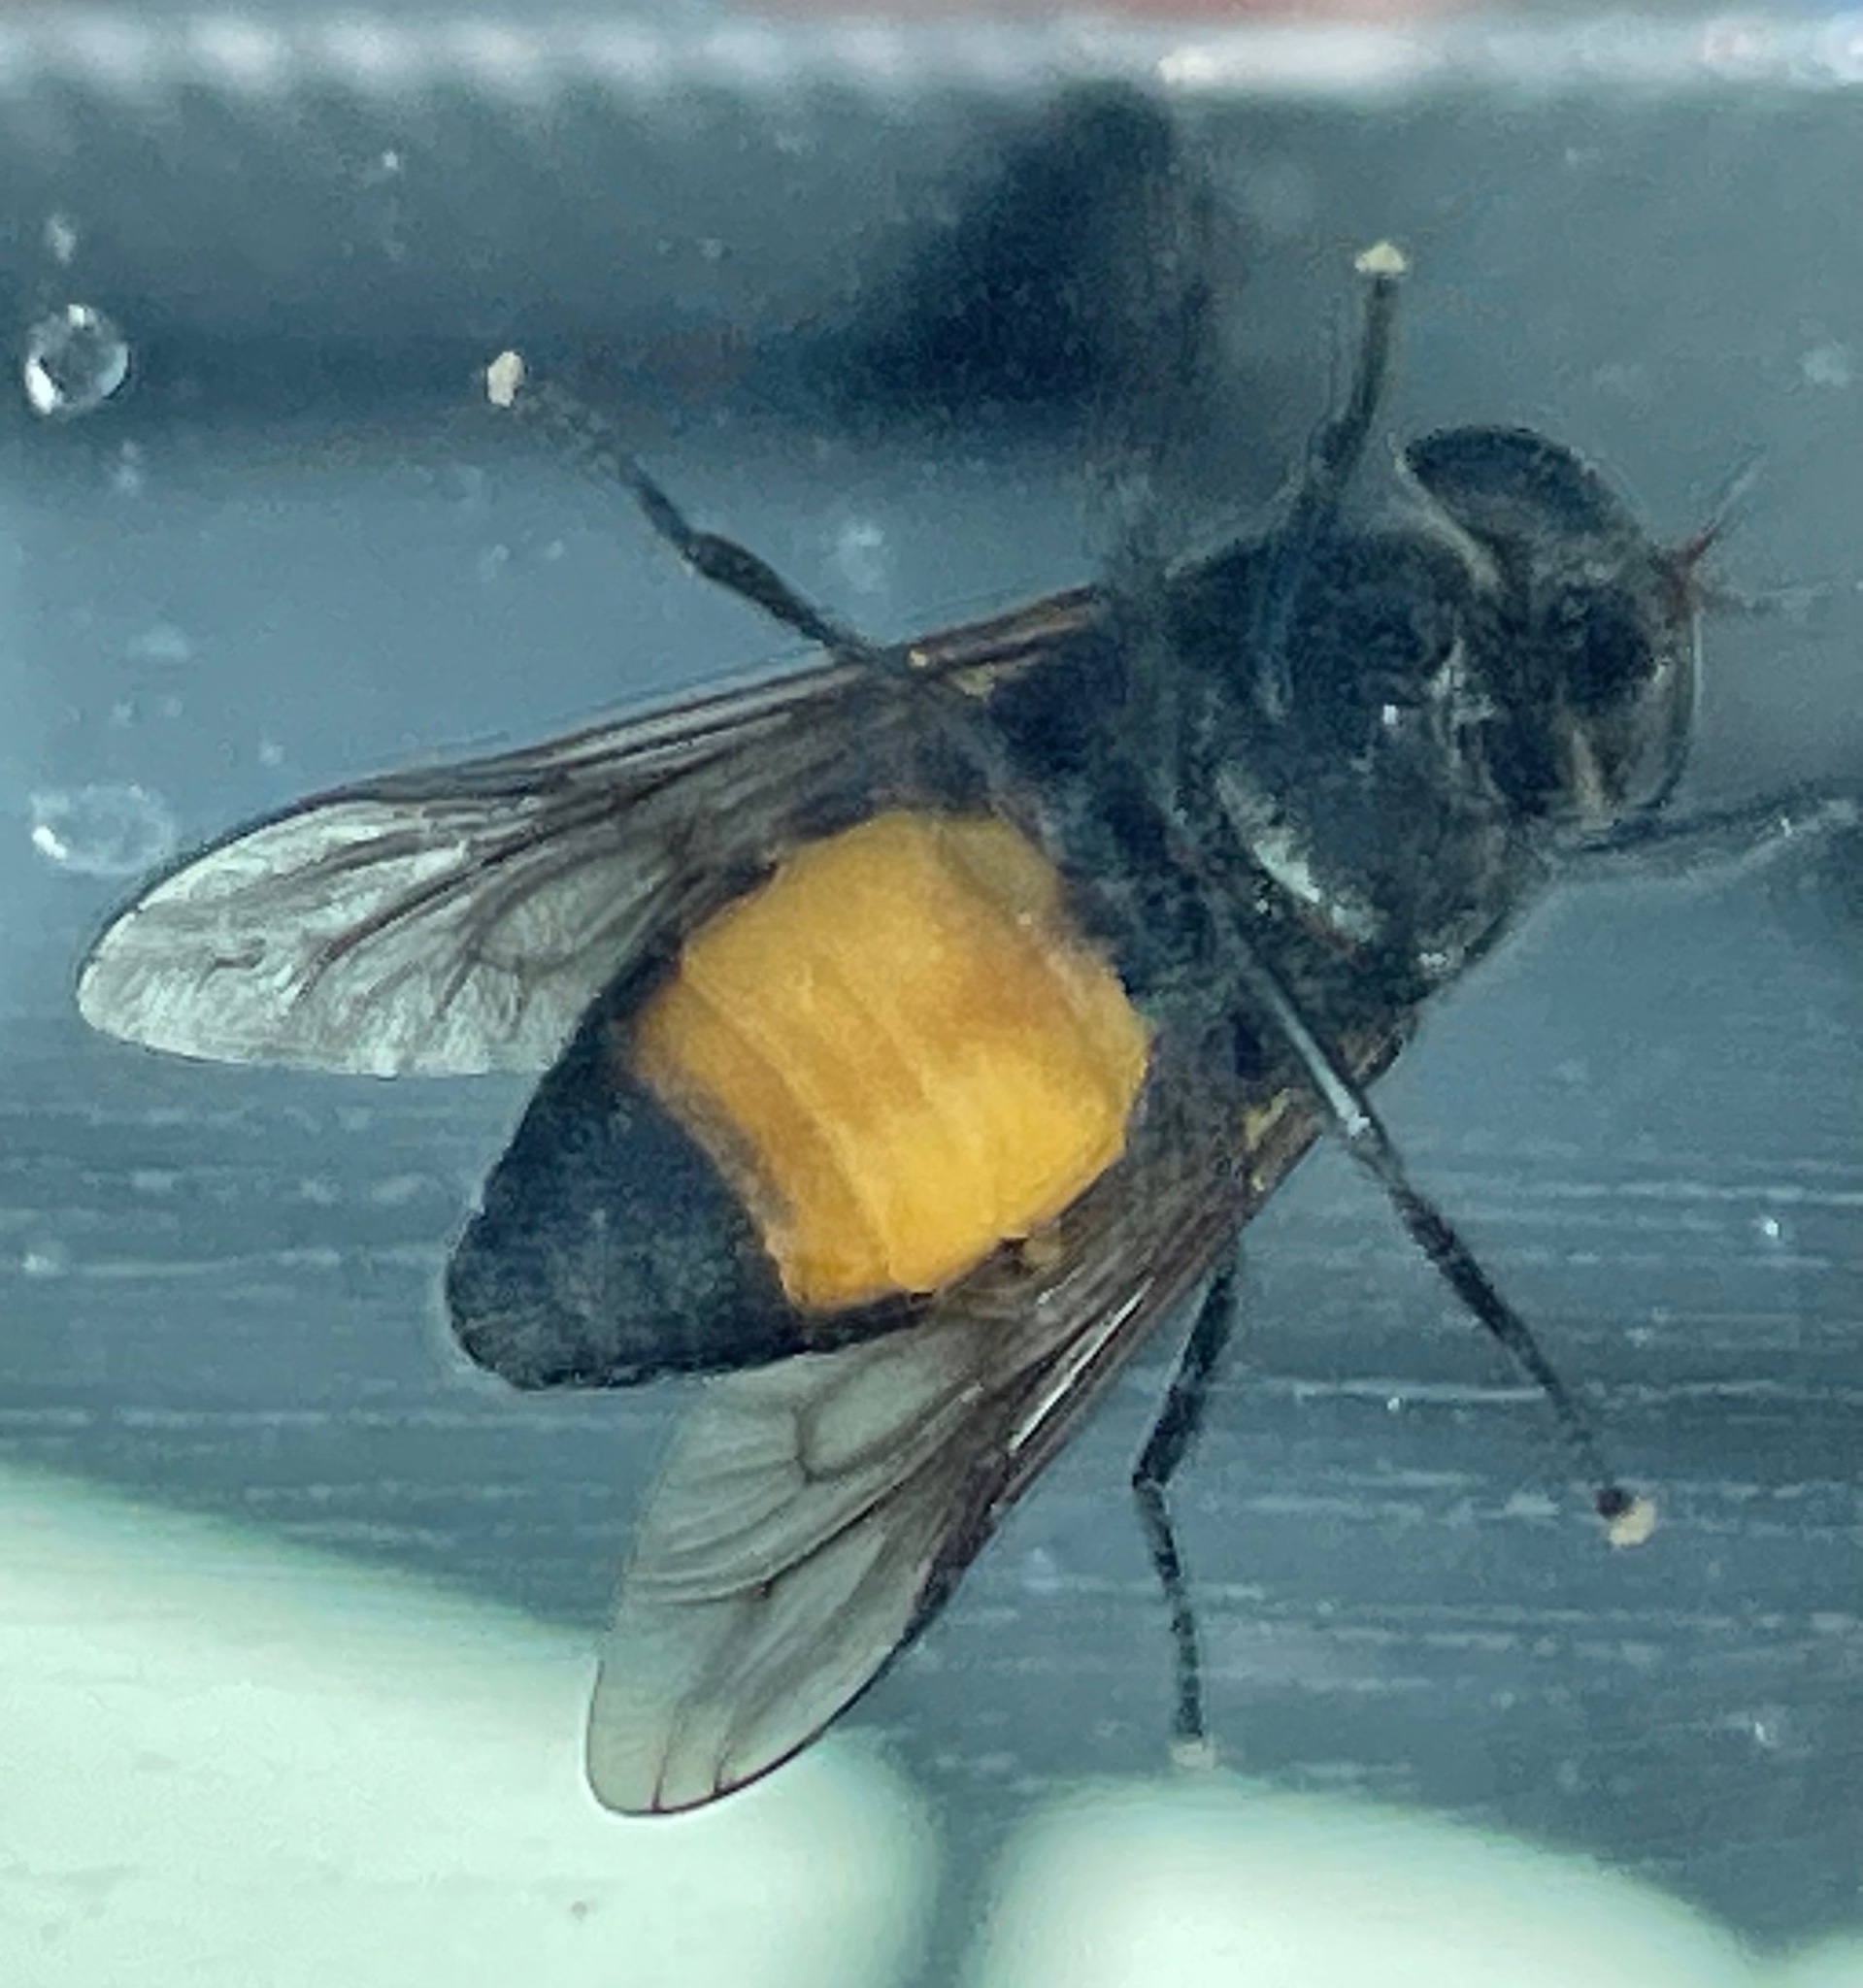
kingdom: Animalia
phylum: Arthropoda
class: Insecta
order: Diptera
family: Tabanidae
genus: Hybomitra
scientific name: Hybomitra cincta
